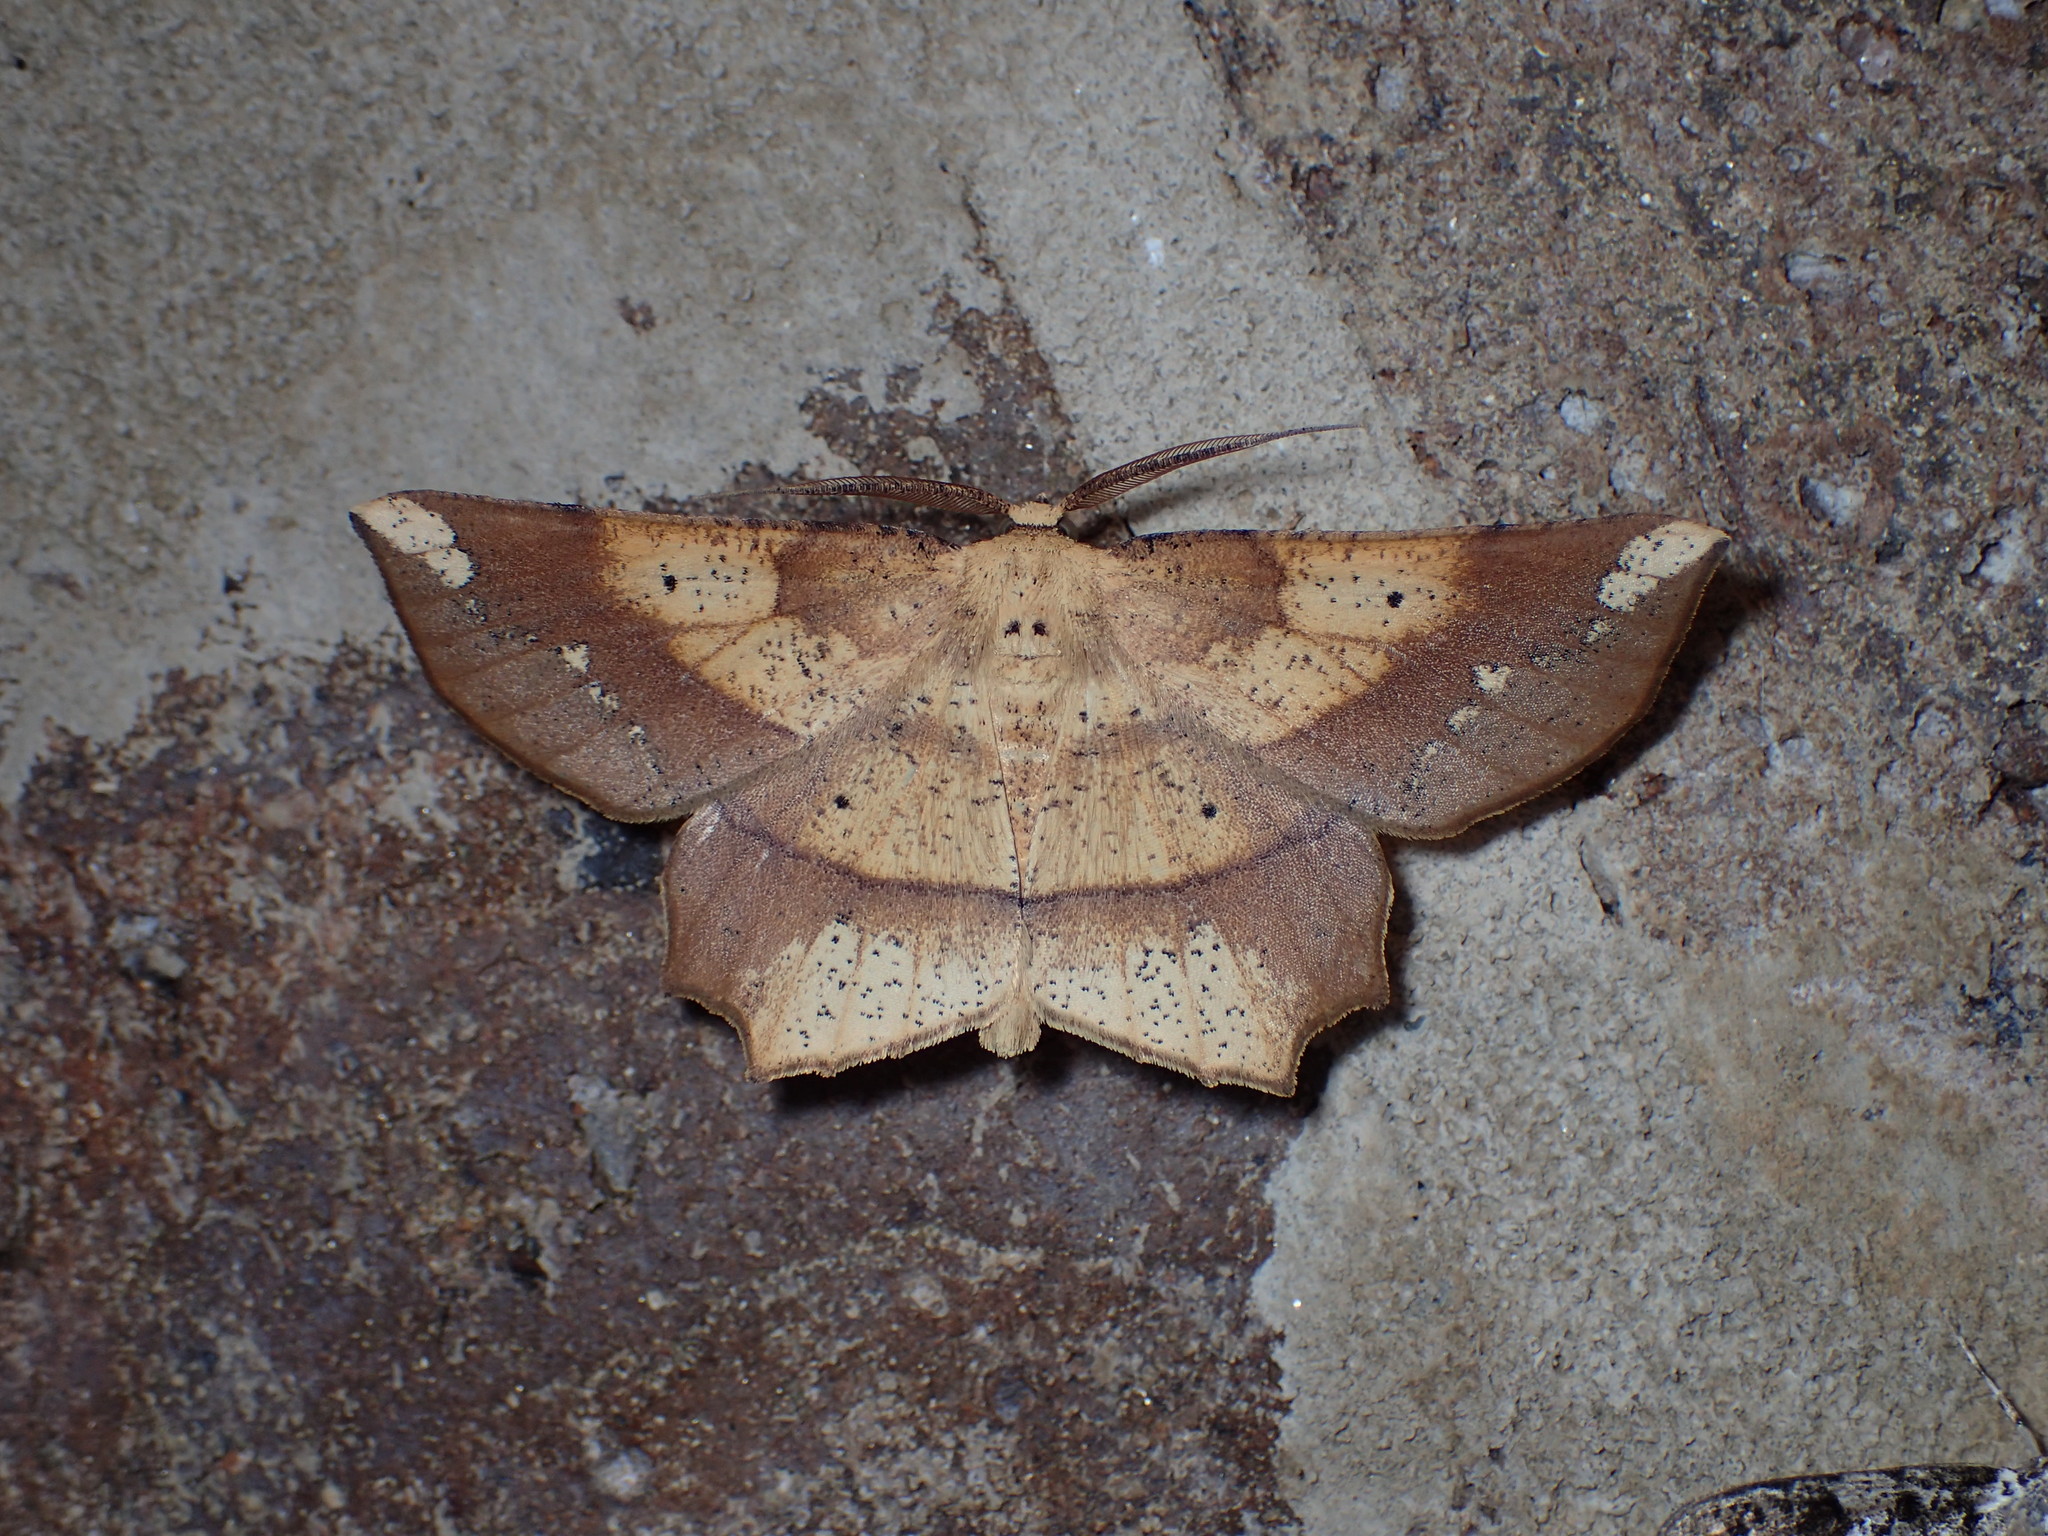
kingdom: Animalia
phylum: Arthropoda
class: Insecta
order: Lepidoptera
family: Geometridae
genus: Euchlaena
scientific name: Euchlaena amoenaria
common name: Deep yellow euchlaena
